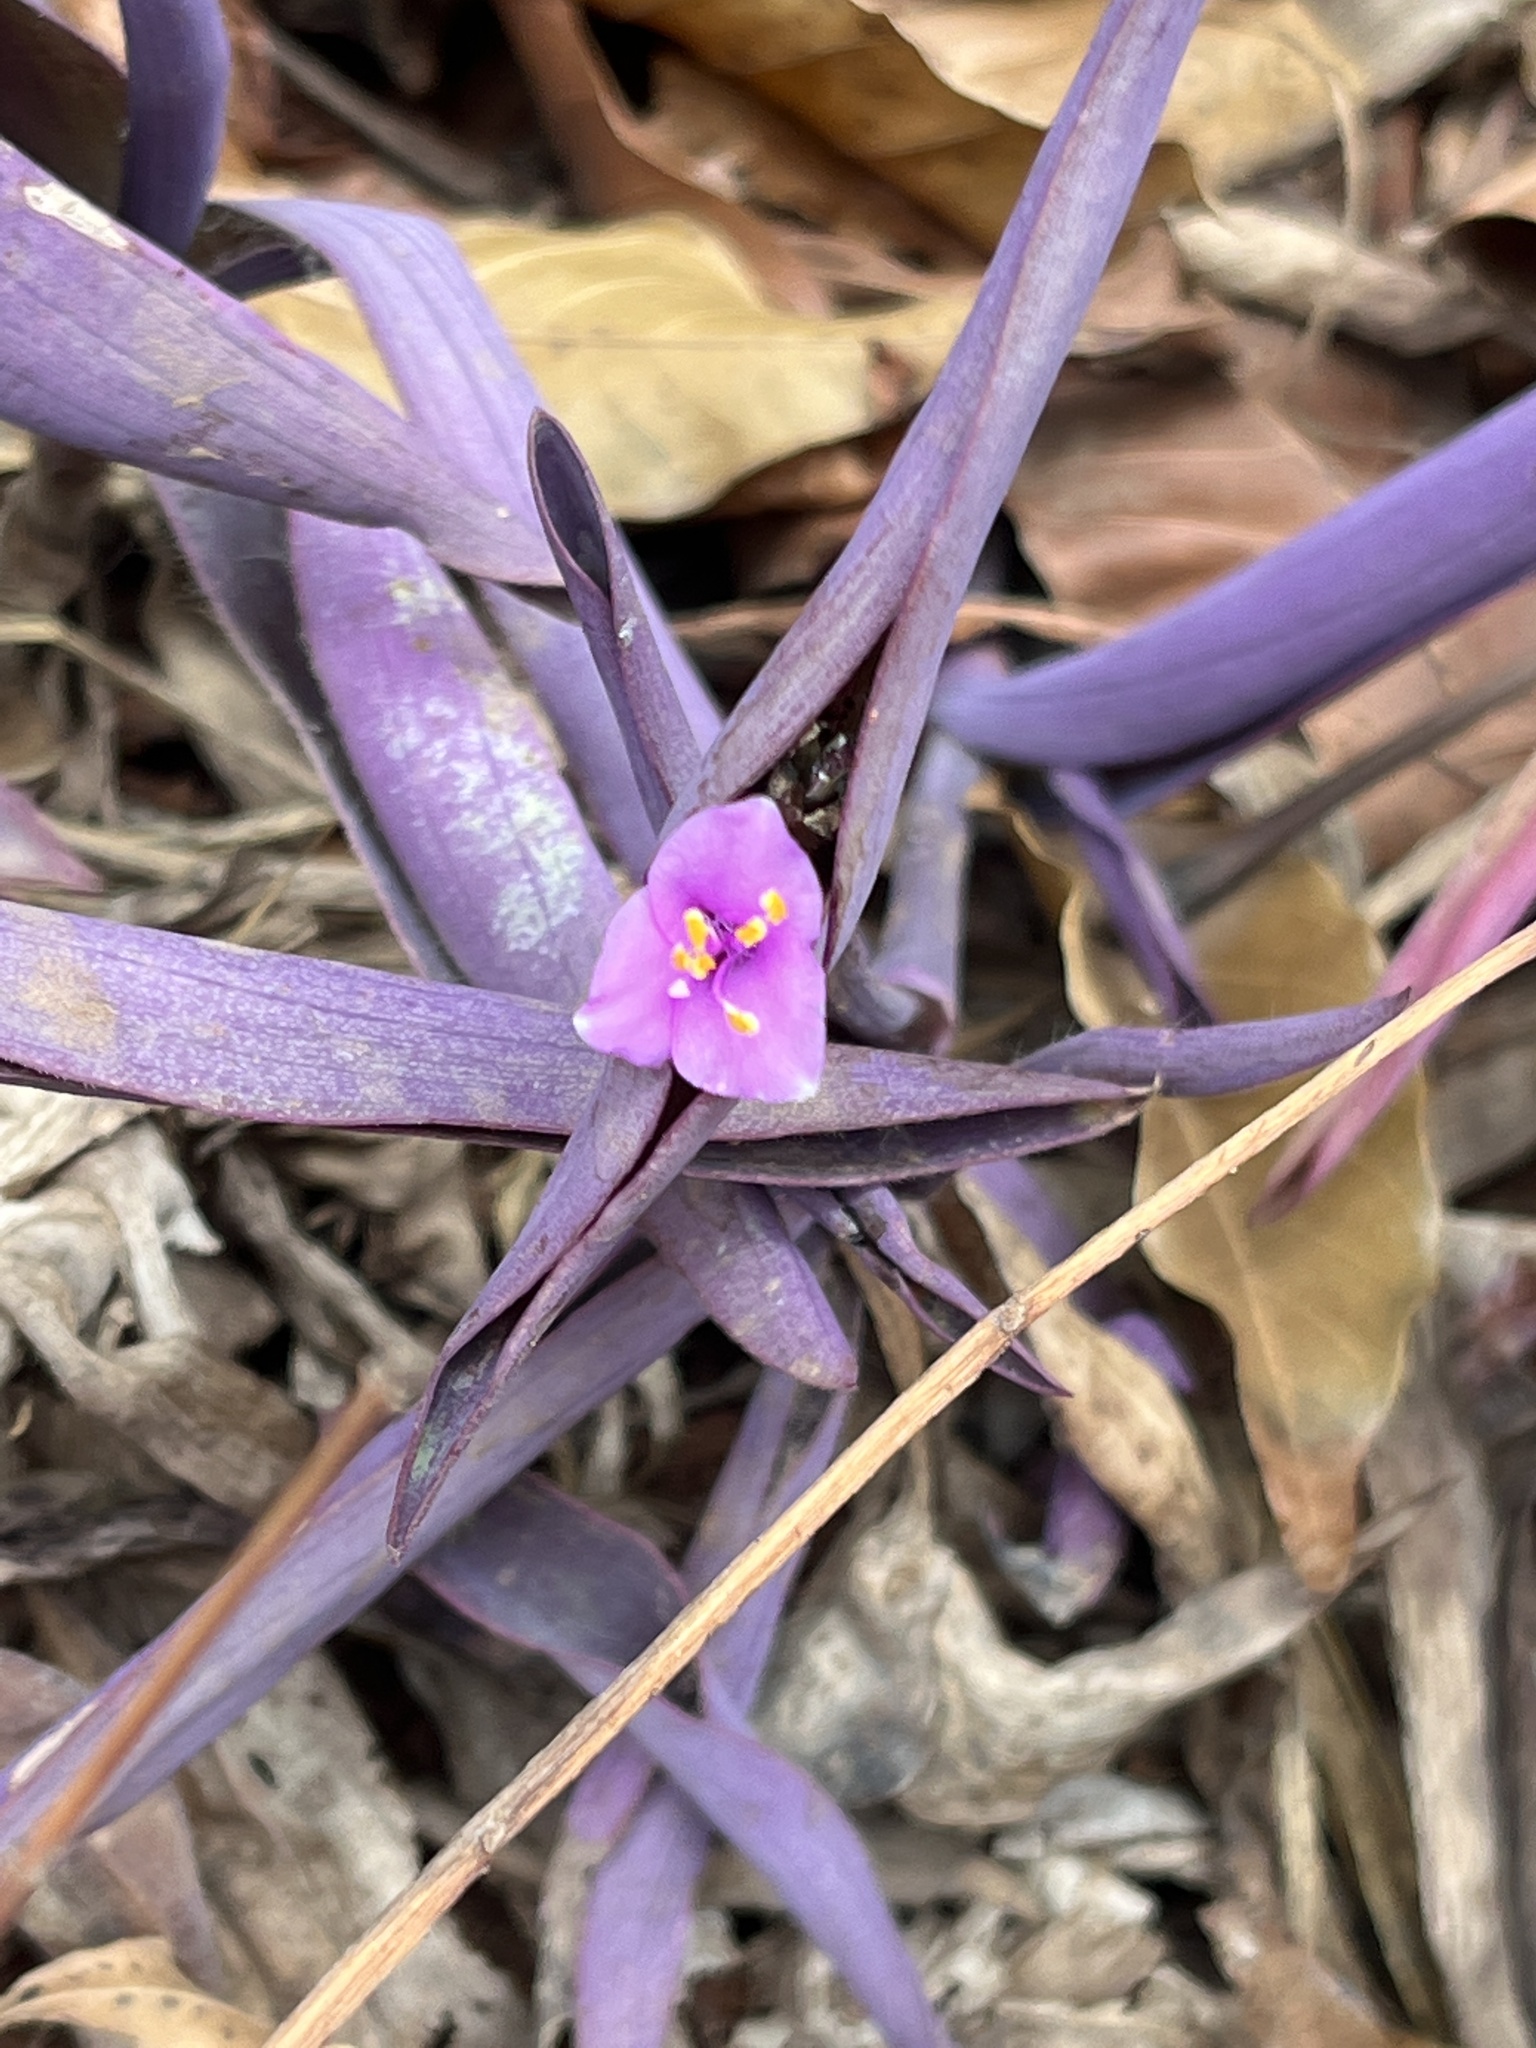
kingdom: Plantae
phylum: Tracheophyta
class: Liliopsida
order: Commelinales
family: Commelinaceae
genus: Tradescantia
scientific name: Tradescantia pallida
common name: Purpleheart
